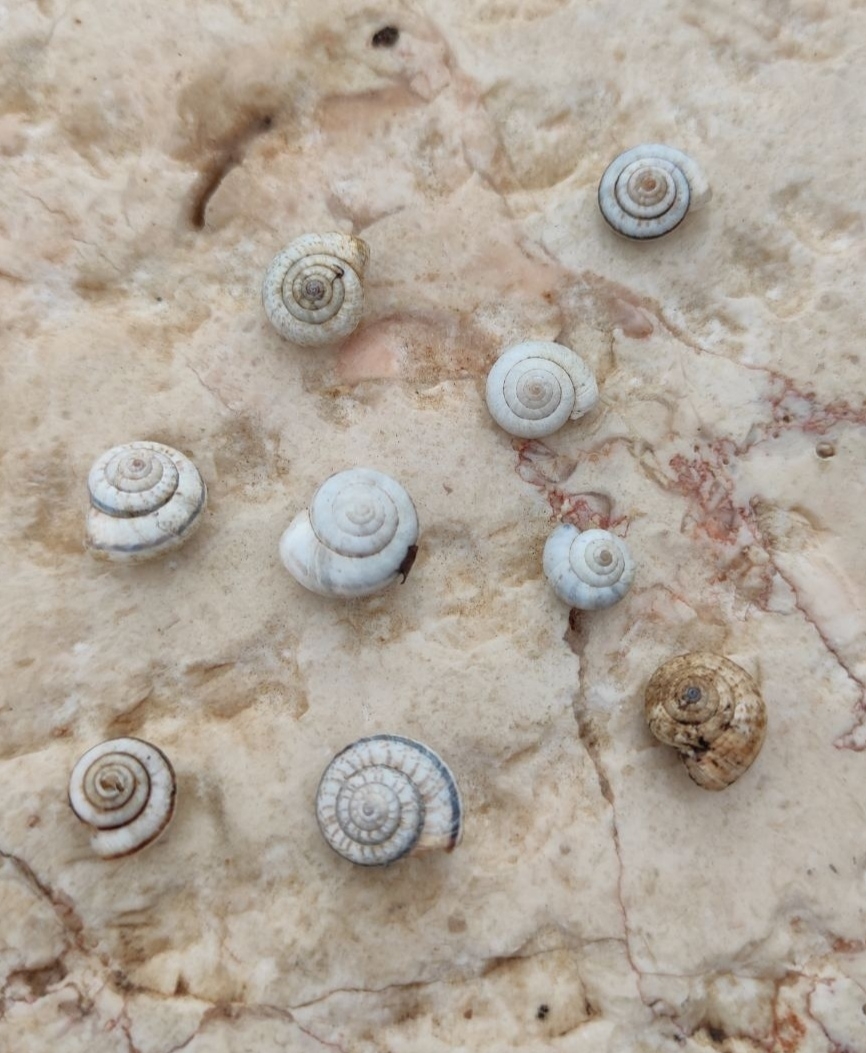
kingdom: Animalia
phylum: Mollusca
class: Gastropoda
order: Stylommatophora
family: Geomitridae
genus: Xeropicta
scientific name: Xeropicta krynickii
